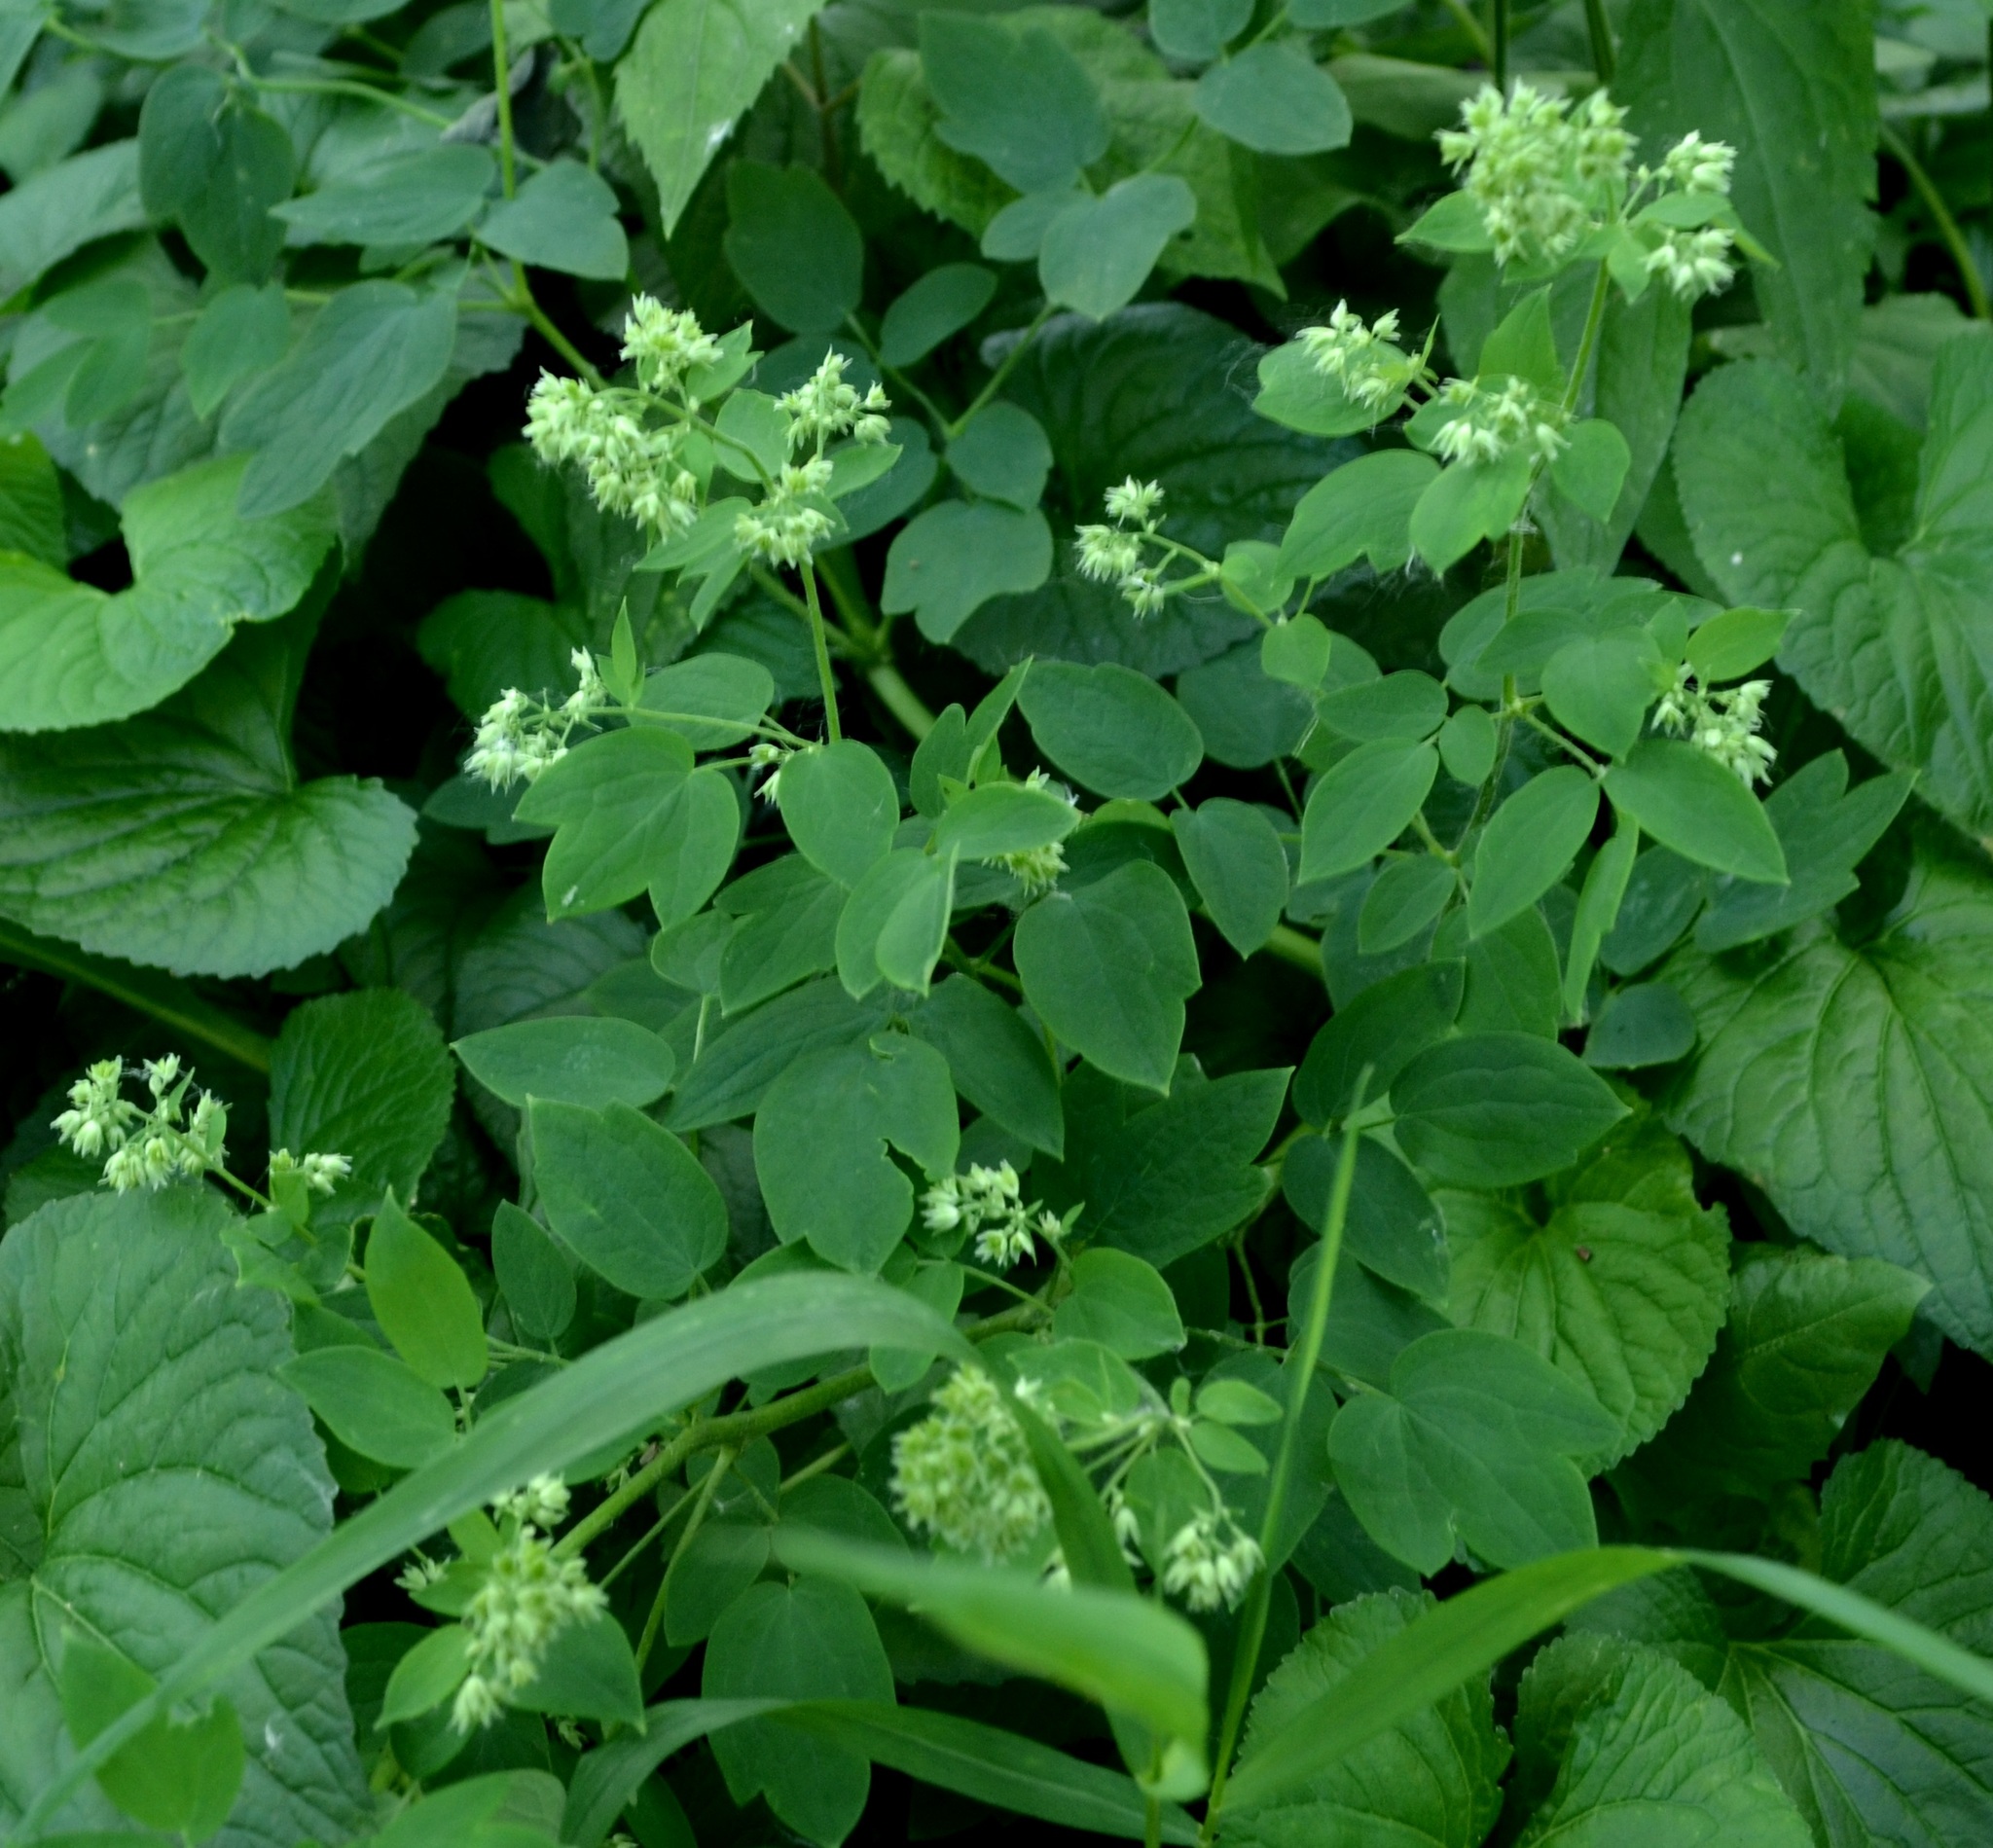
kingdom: Plantae
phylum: Tracheophyta
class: Magnoliopsida
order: Ranunculales
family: Ranunculaceae
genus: Thalictrum
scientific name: Thalictrum dasycarpum
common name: Purple meadow-rue
